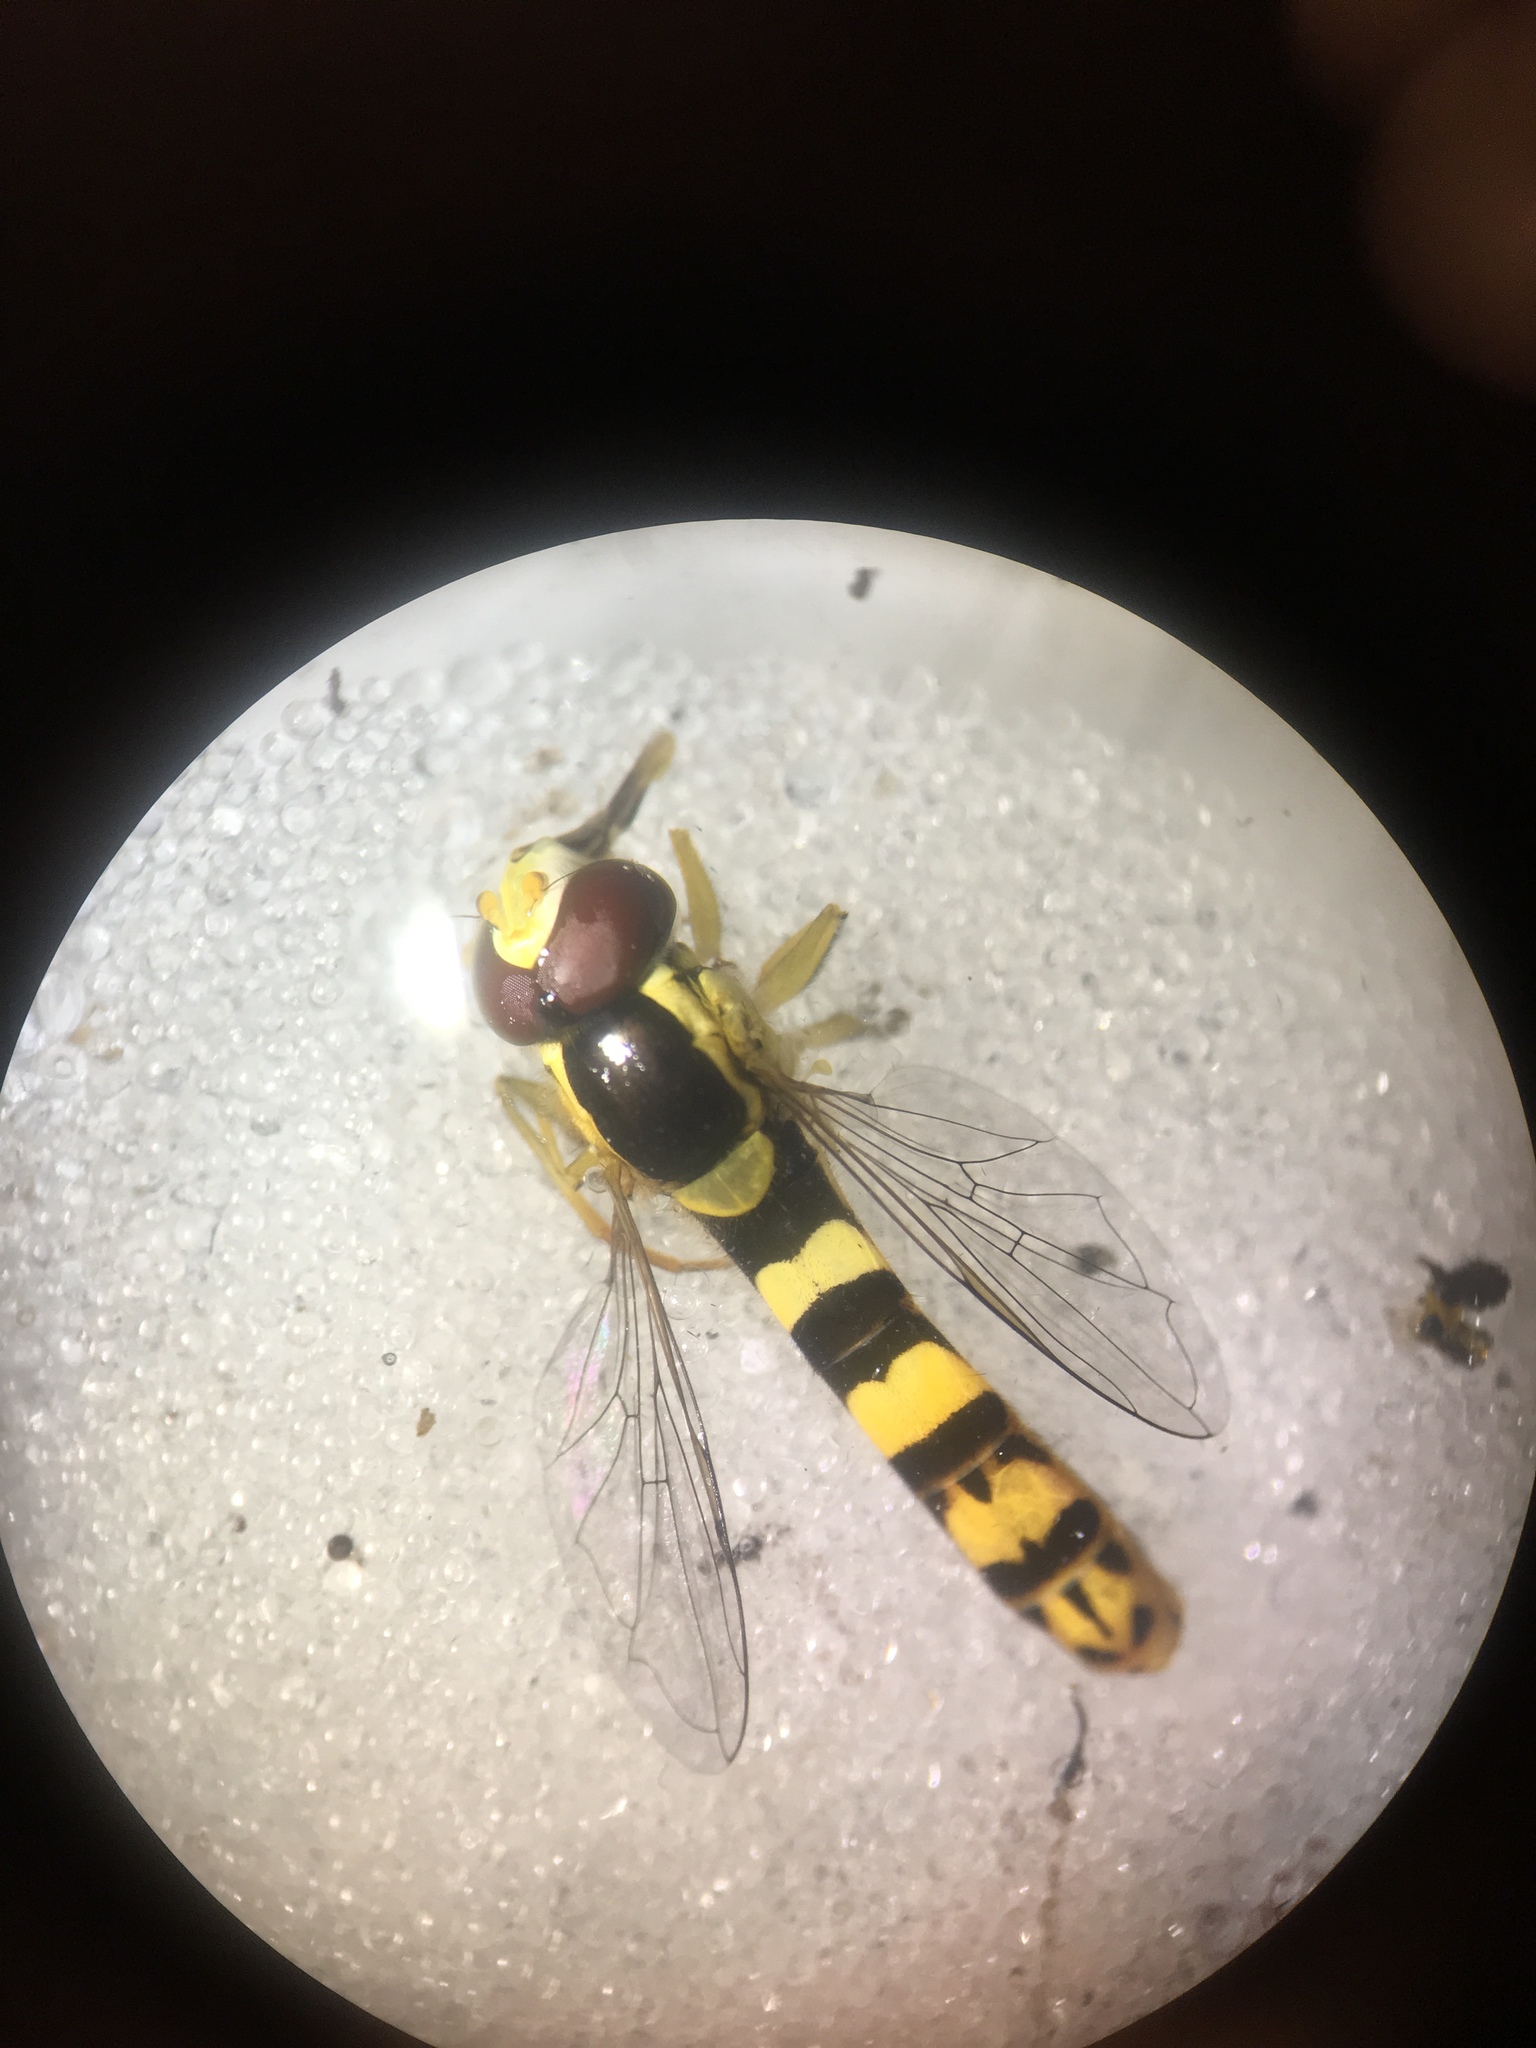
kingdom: Animalia
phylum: Arthropoda
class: Insecta
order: Diptera
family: Syrphidae
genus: Sphaerophoria
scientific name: Sphaerophoria scripta
